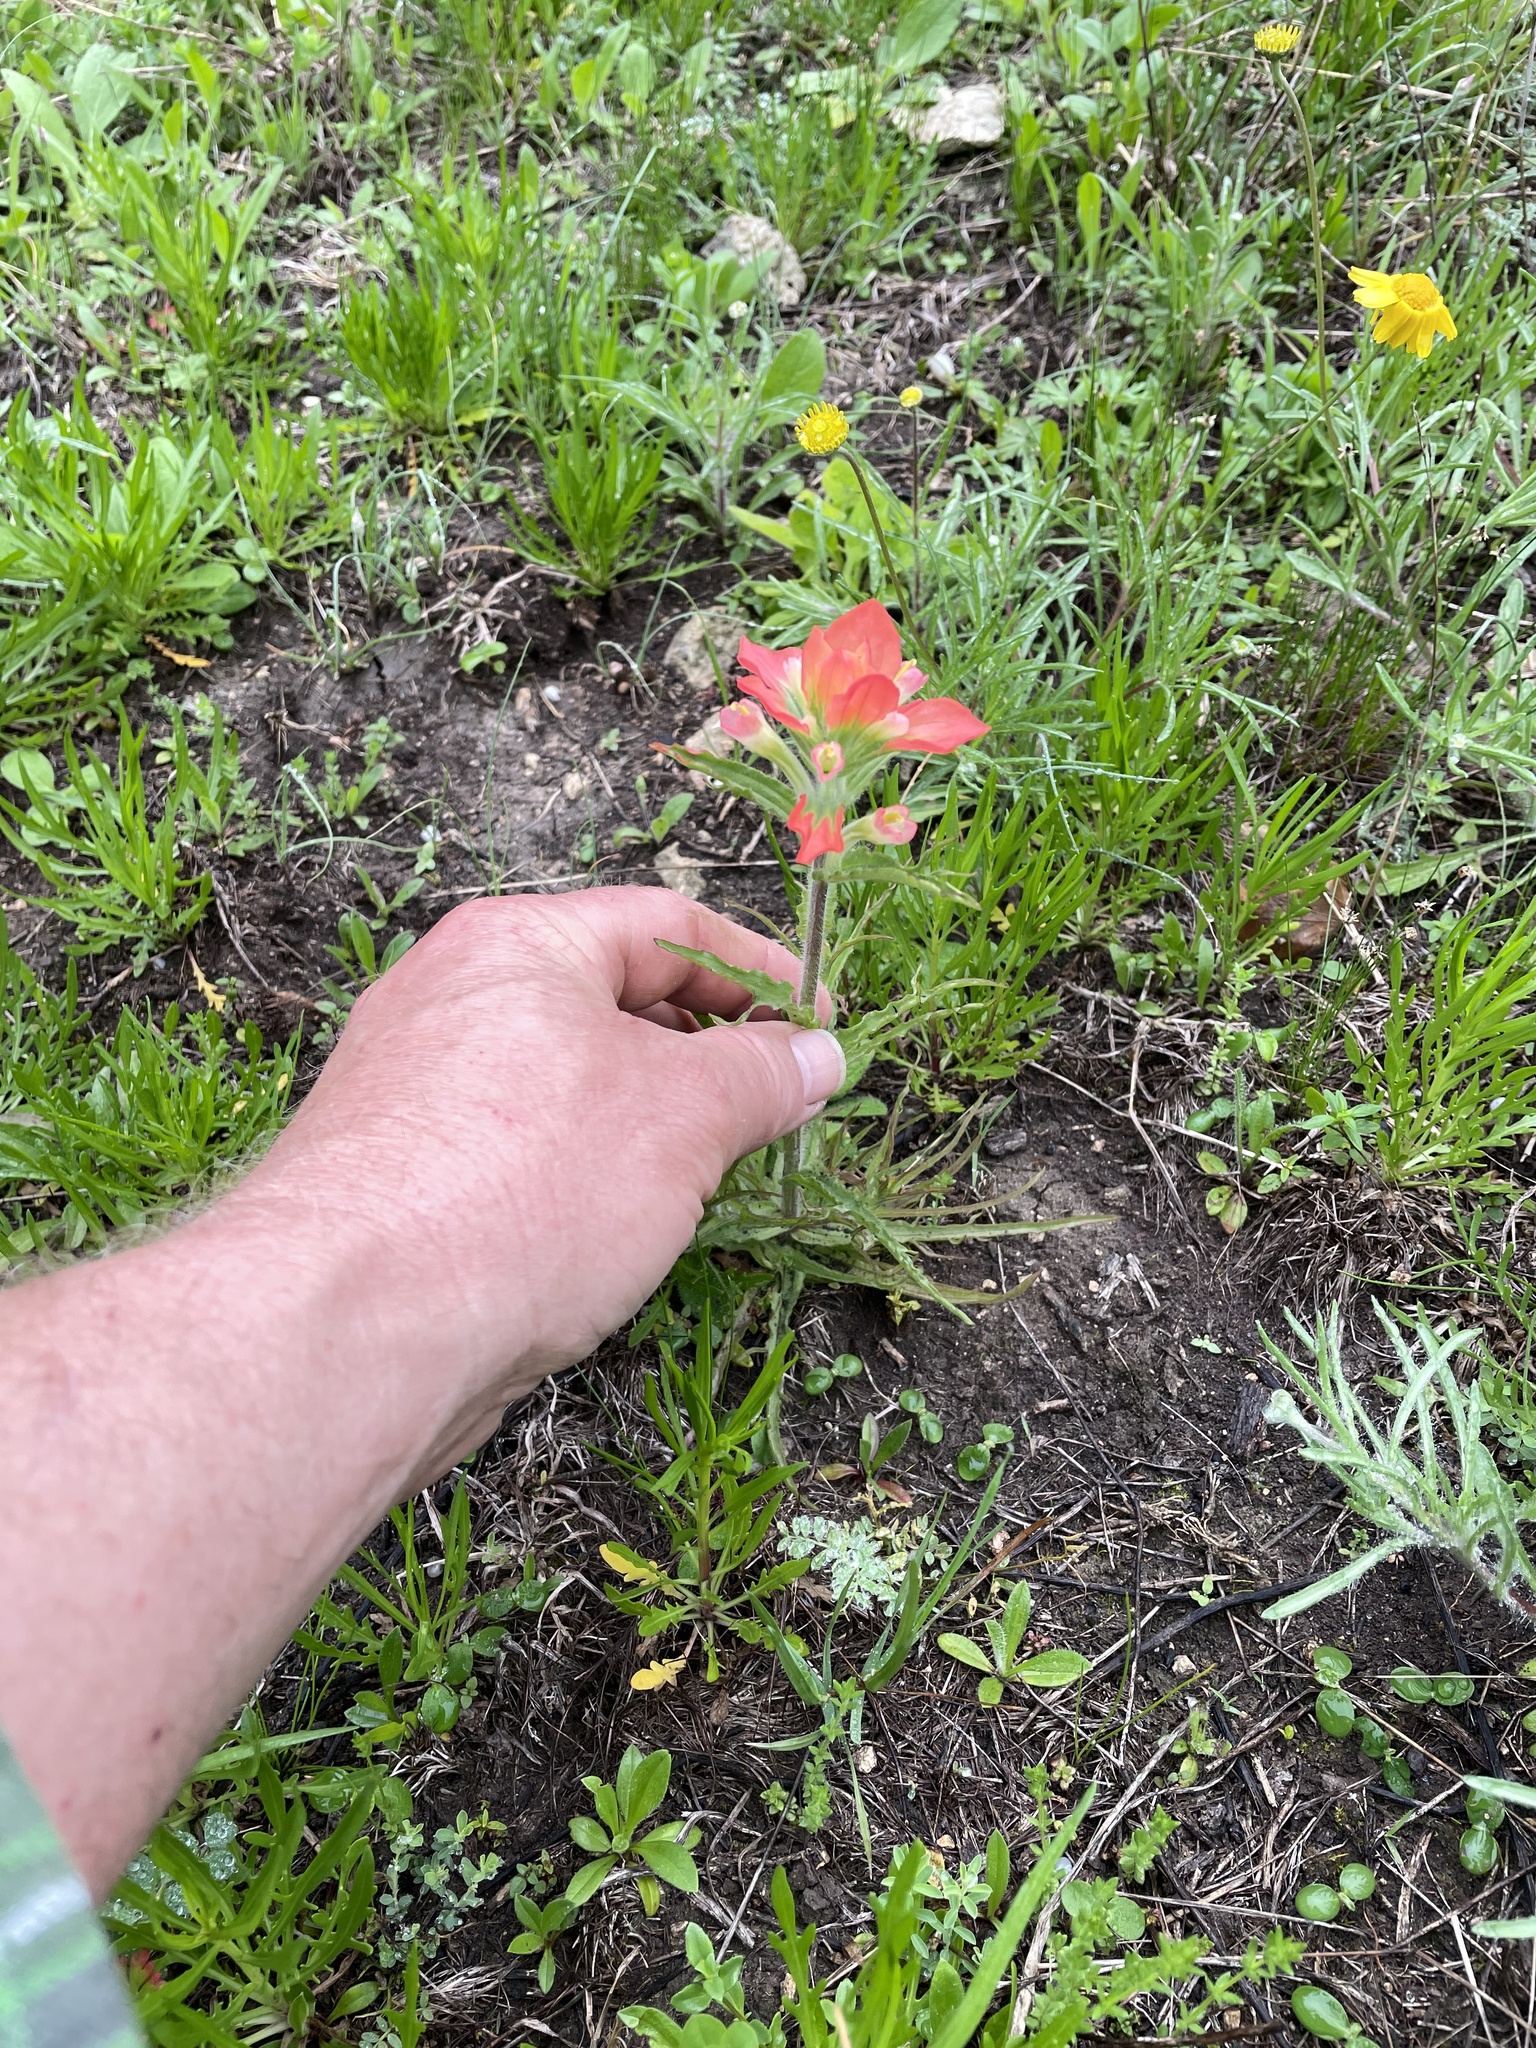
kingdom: Plantae
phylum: Tracheophyta
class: Magnoliopsida
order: Lamiales
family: Orobanchaceae
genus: Castilleja
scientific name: Castilleja indivisa
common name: Texas paintbrush
